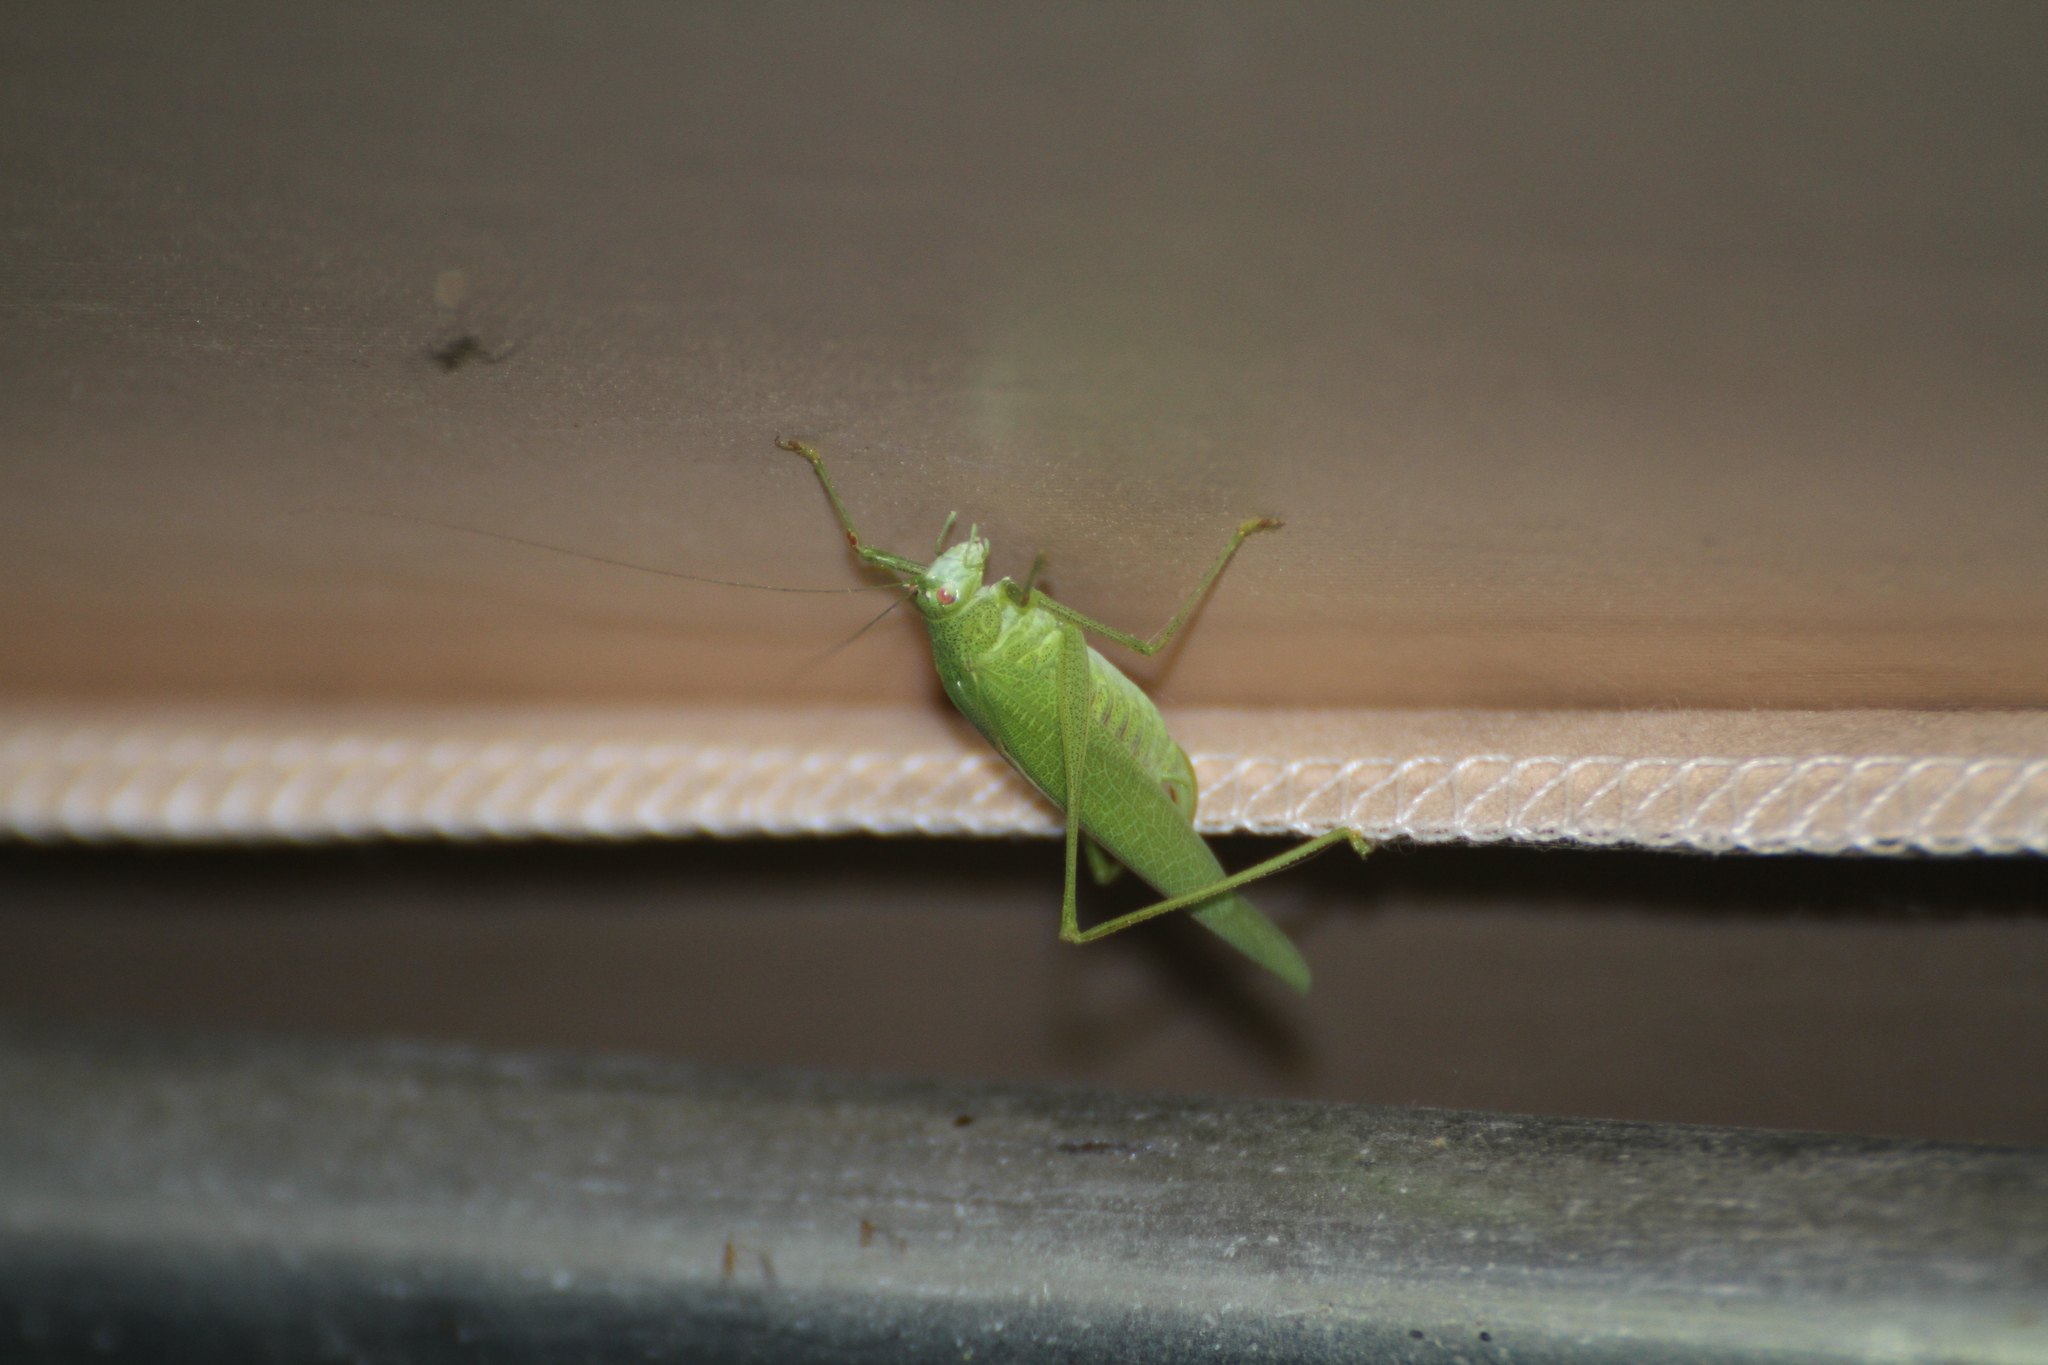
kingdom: Animalia
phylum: Arthropoda
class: Insecta
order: Orthoptera
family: Tettigoniidae
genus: Phaneroptera
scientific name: Phaneroptera nana
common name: Southern sickle bush-cricket
